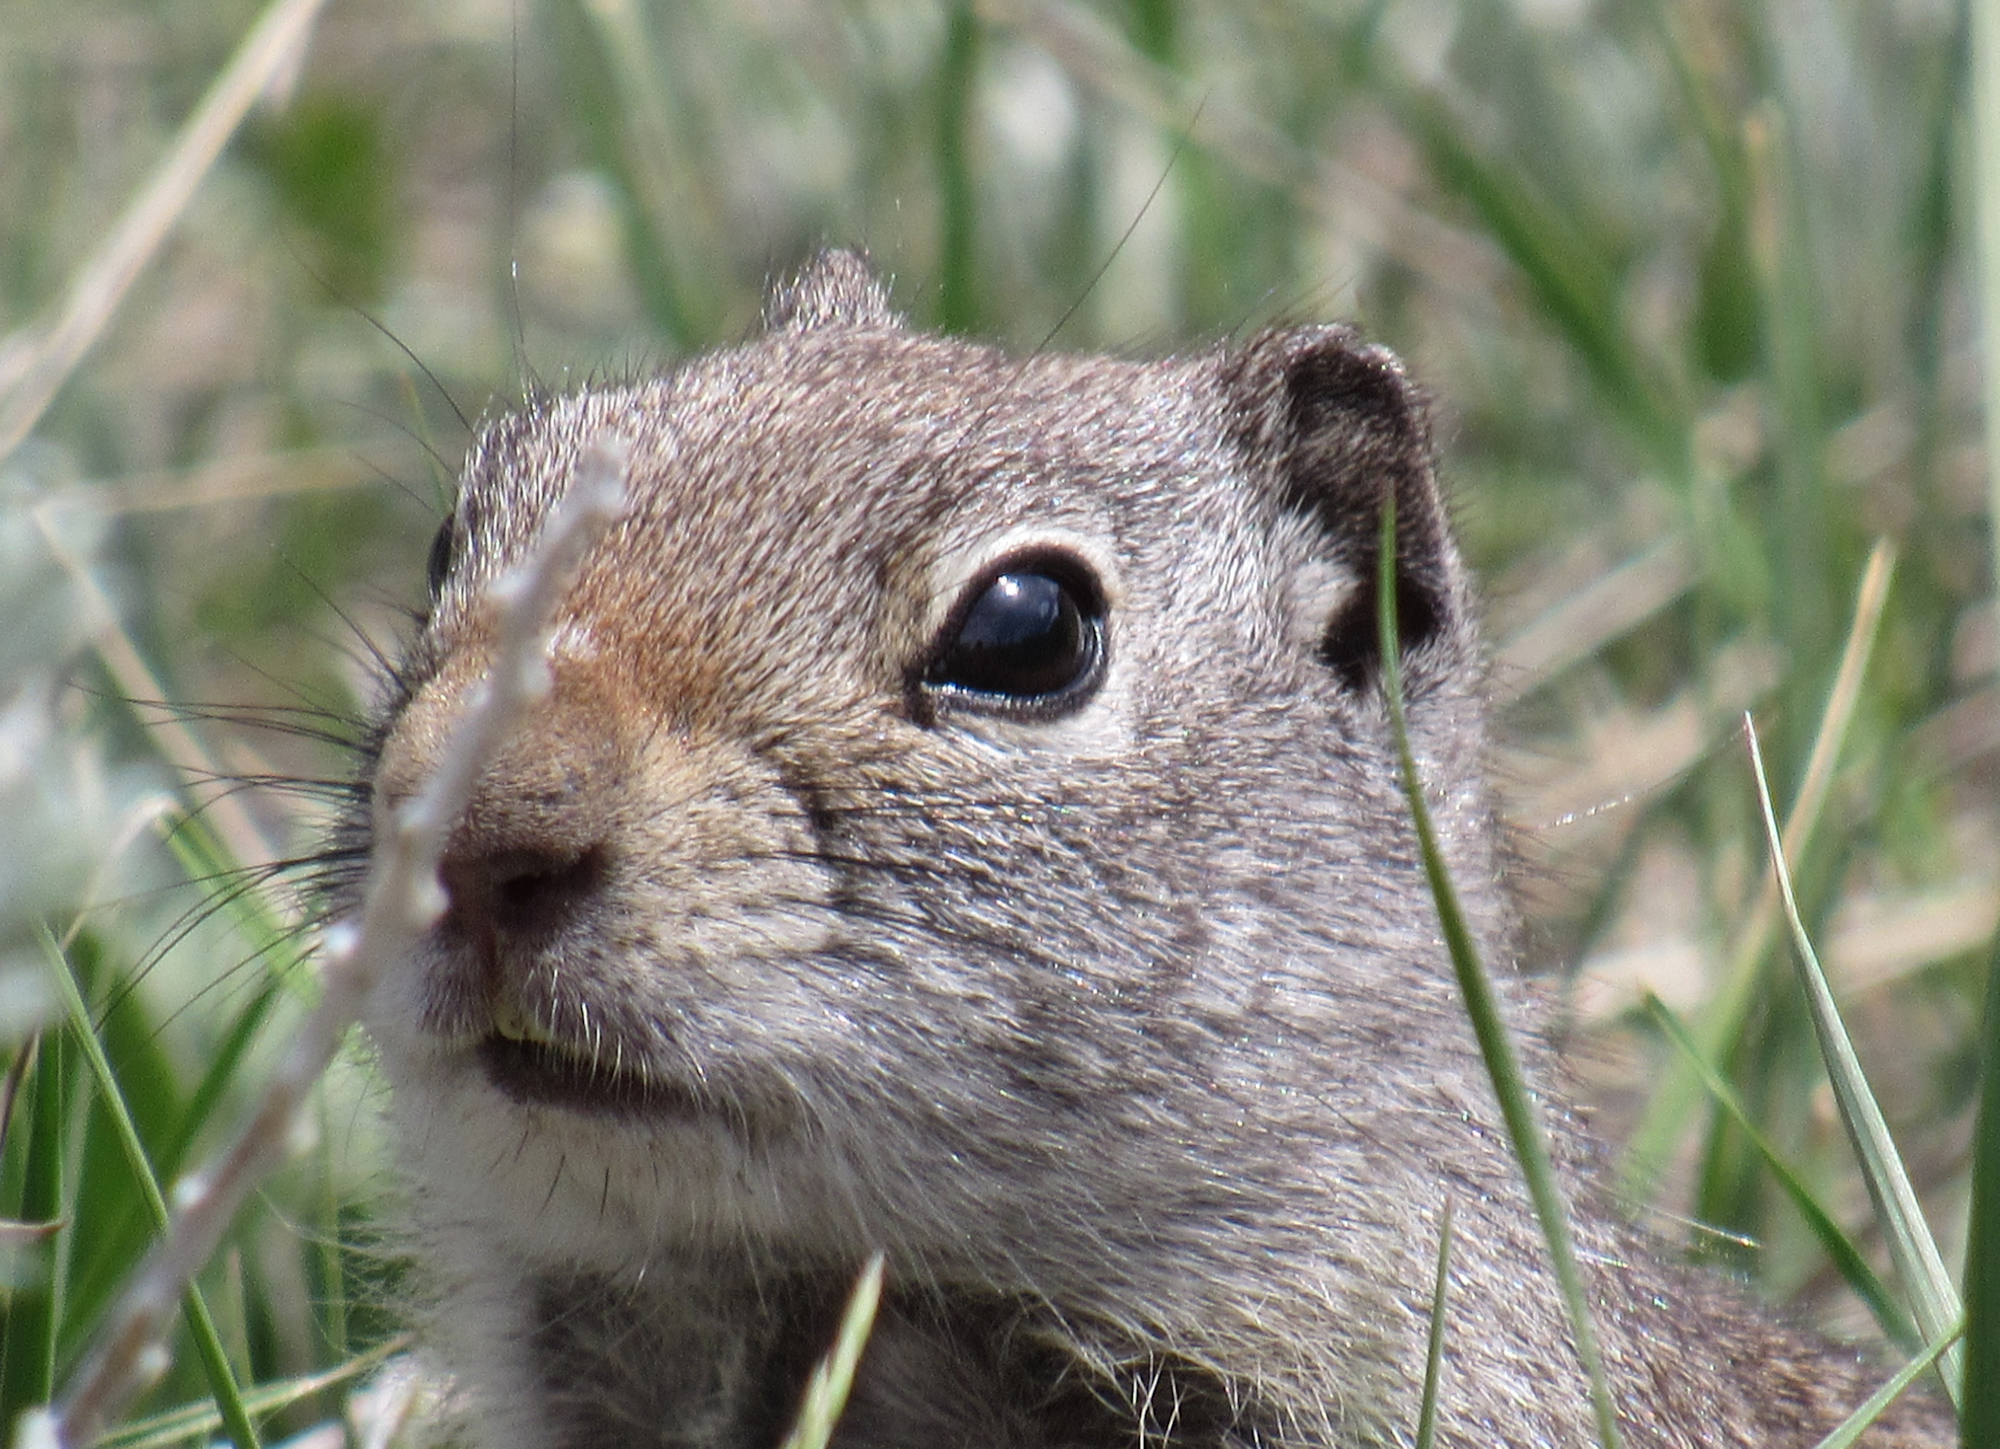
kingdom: Animalia
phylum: Chordata
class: Mammalia
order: Rodentia
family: Sciuridae
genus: Urocitellus
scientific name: Urocitellus armatus
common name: Uinta ground squirrel
